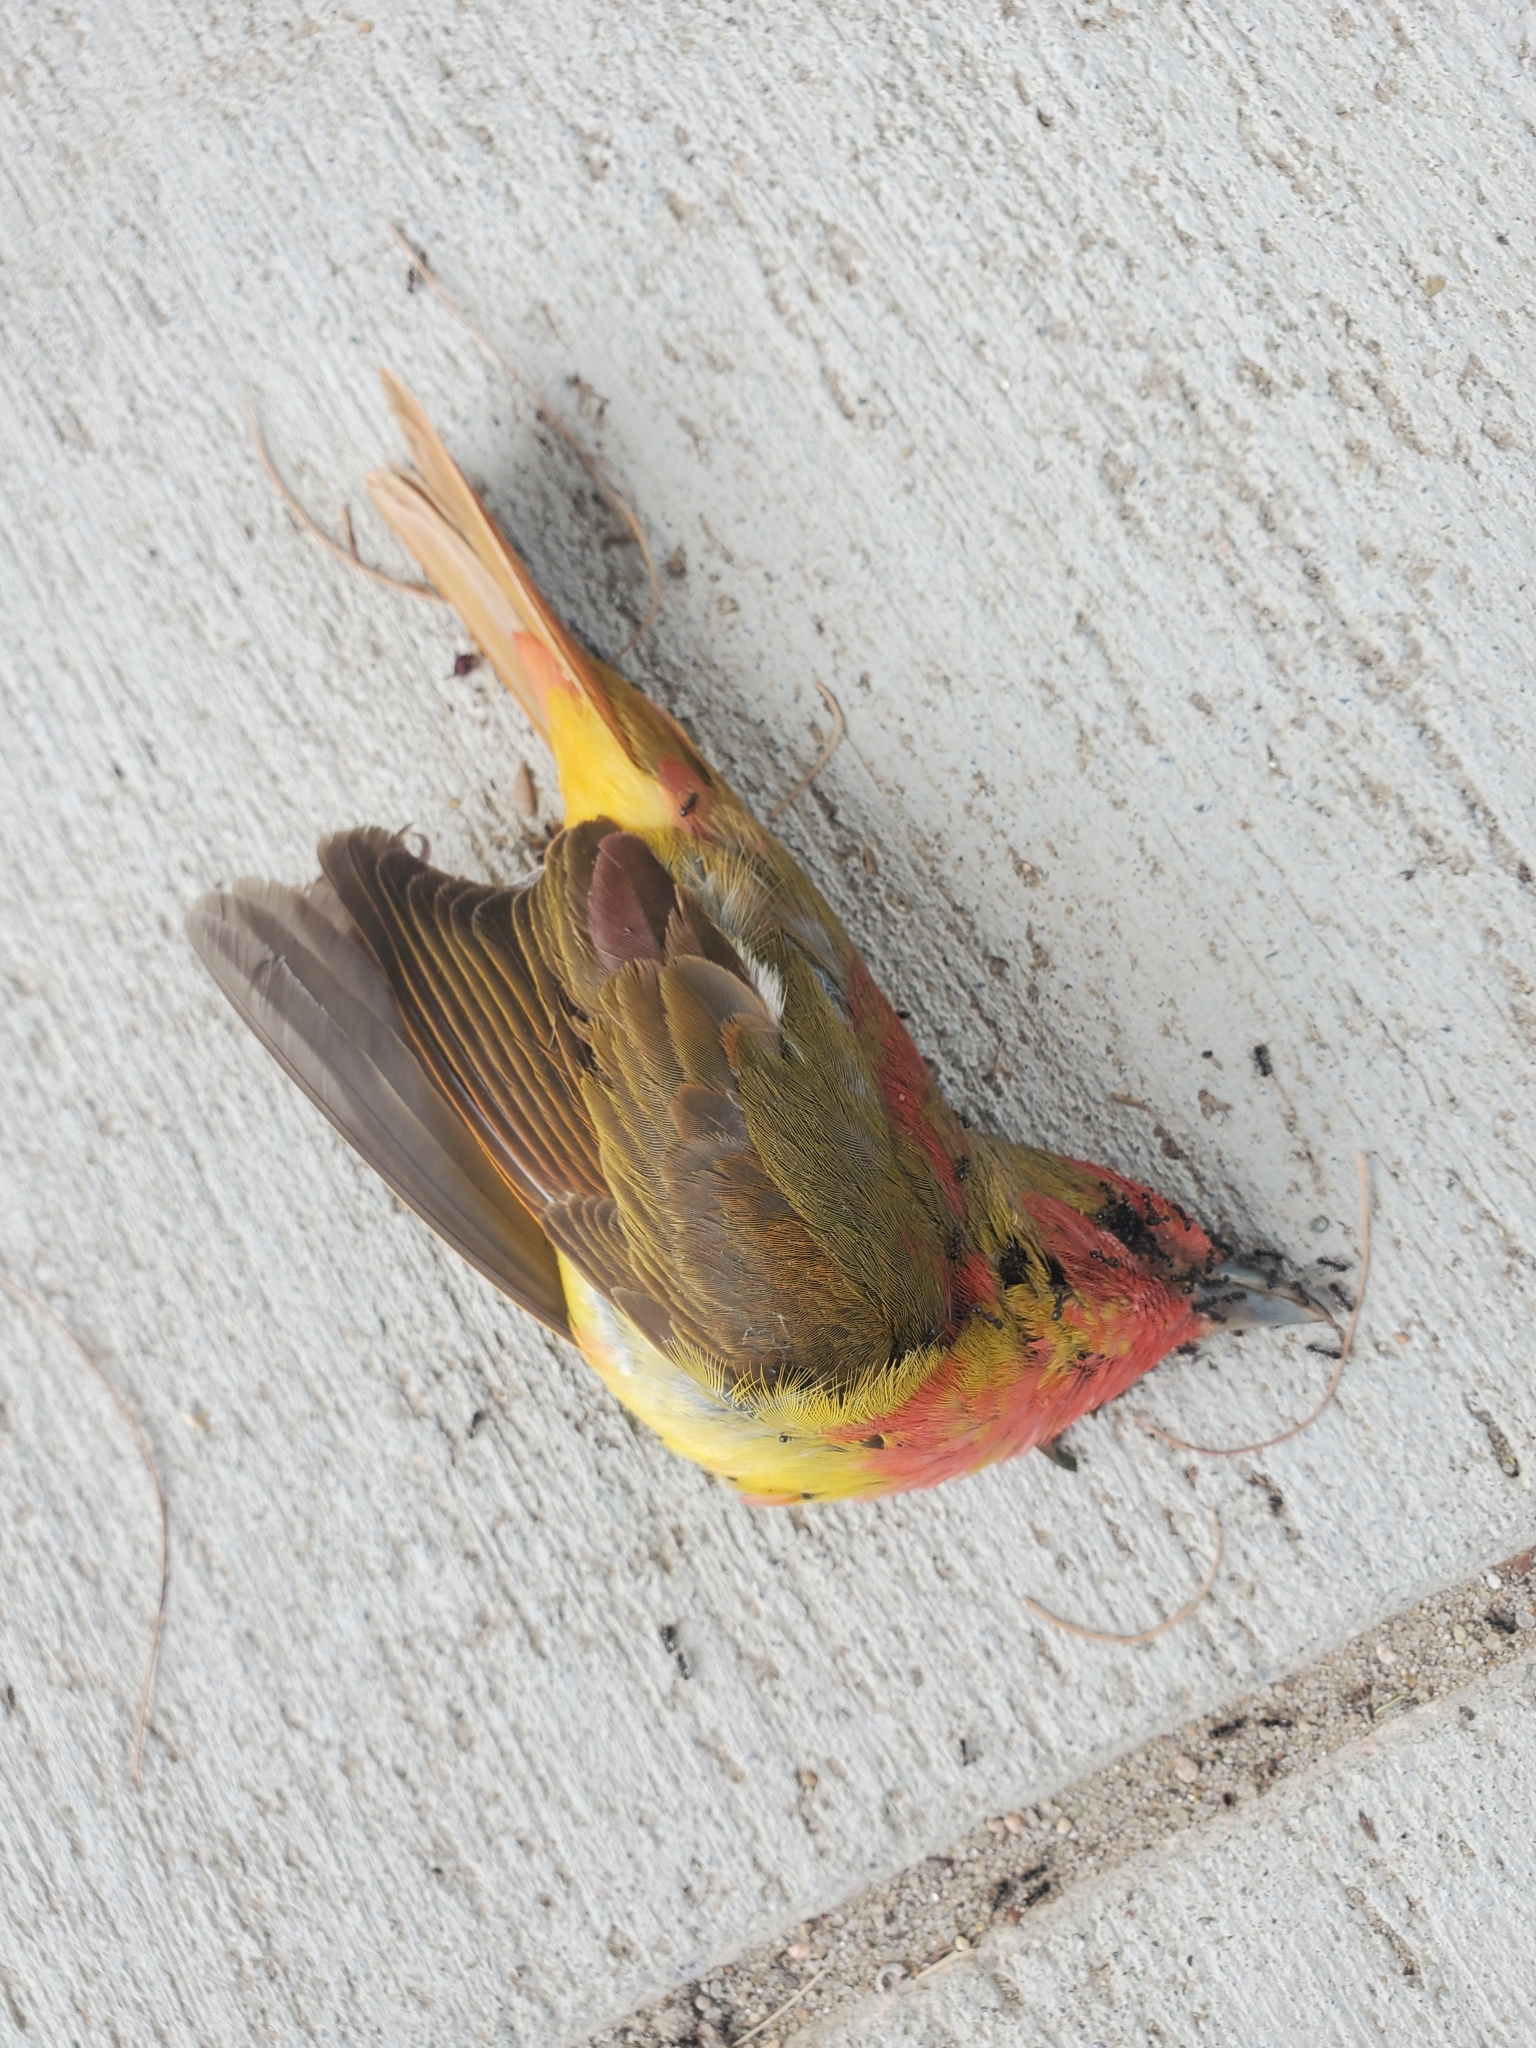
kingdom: Animalia
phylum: Chordata
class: Aves
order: Passeriformes
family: Cardinalidae
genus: Piranga
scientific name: Piranga rubra
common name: Summer tanager
